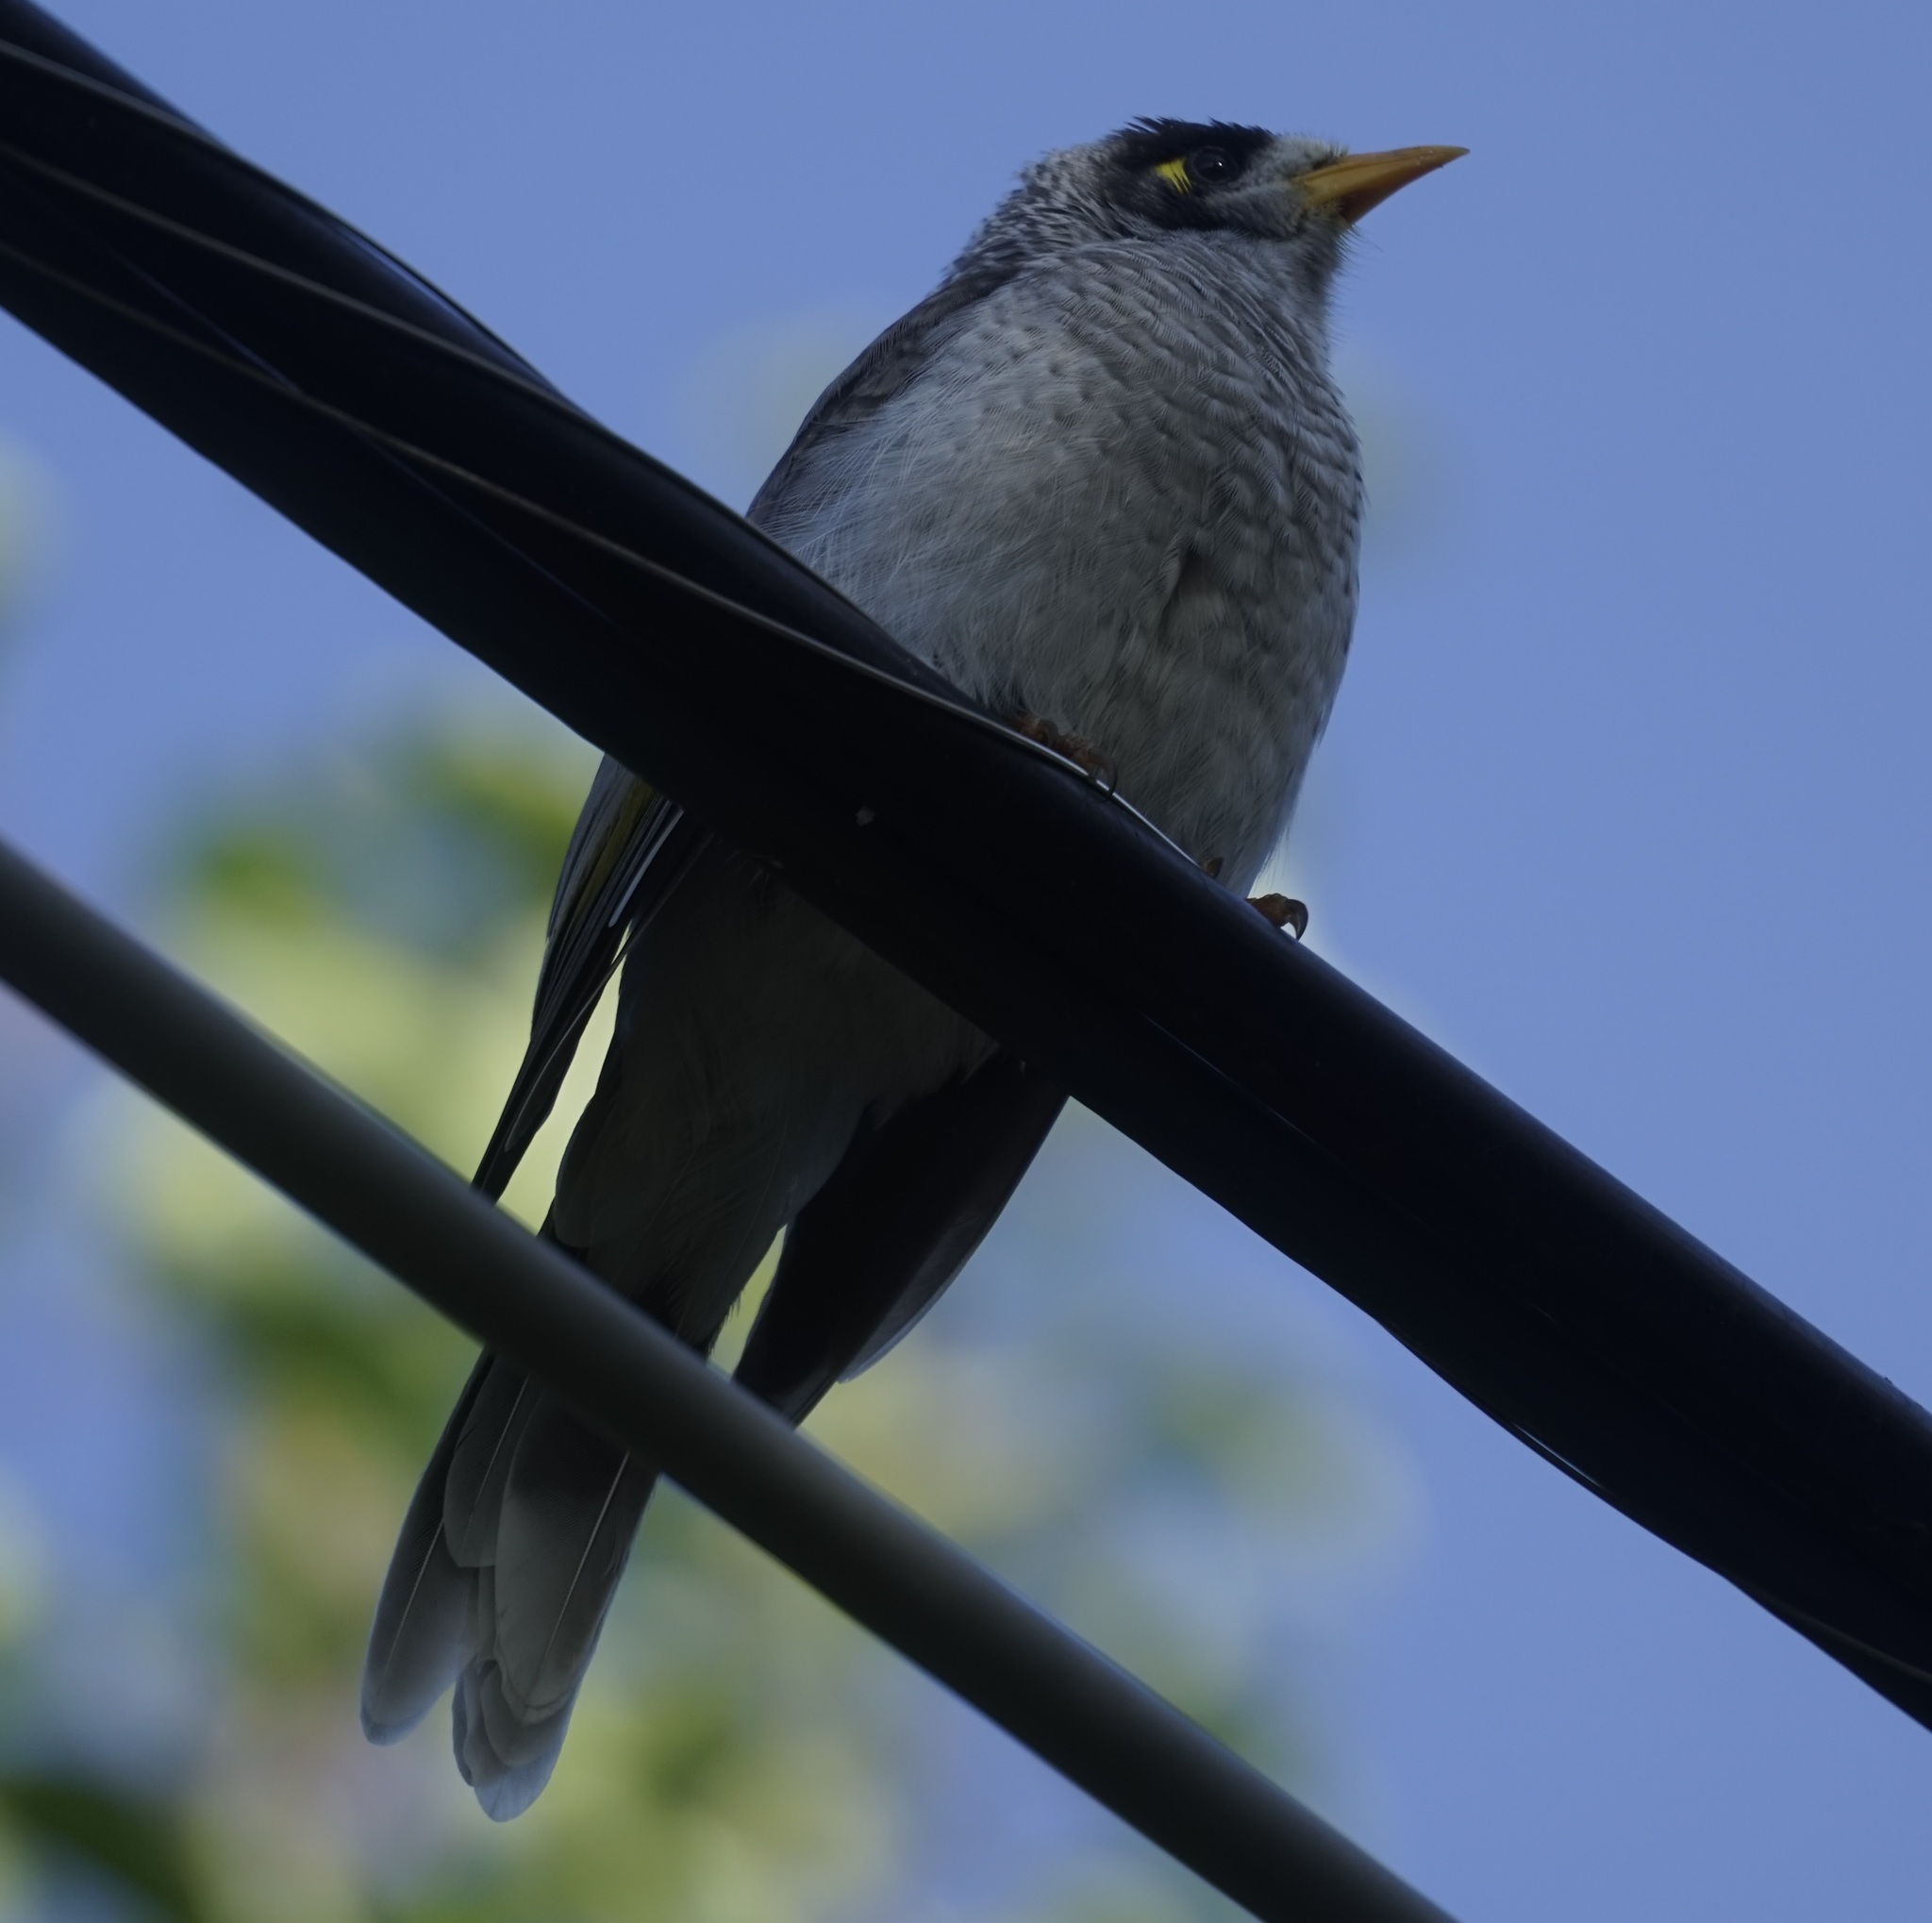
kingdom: Animalia
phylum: Chordata
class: Aves
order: Passeriformes
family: Meliphagidae
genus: Manorina
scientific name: Manorina melanocephala
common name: Noisy miner
